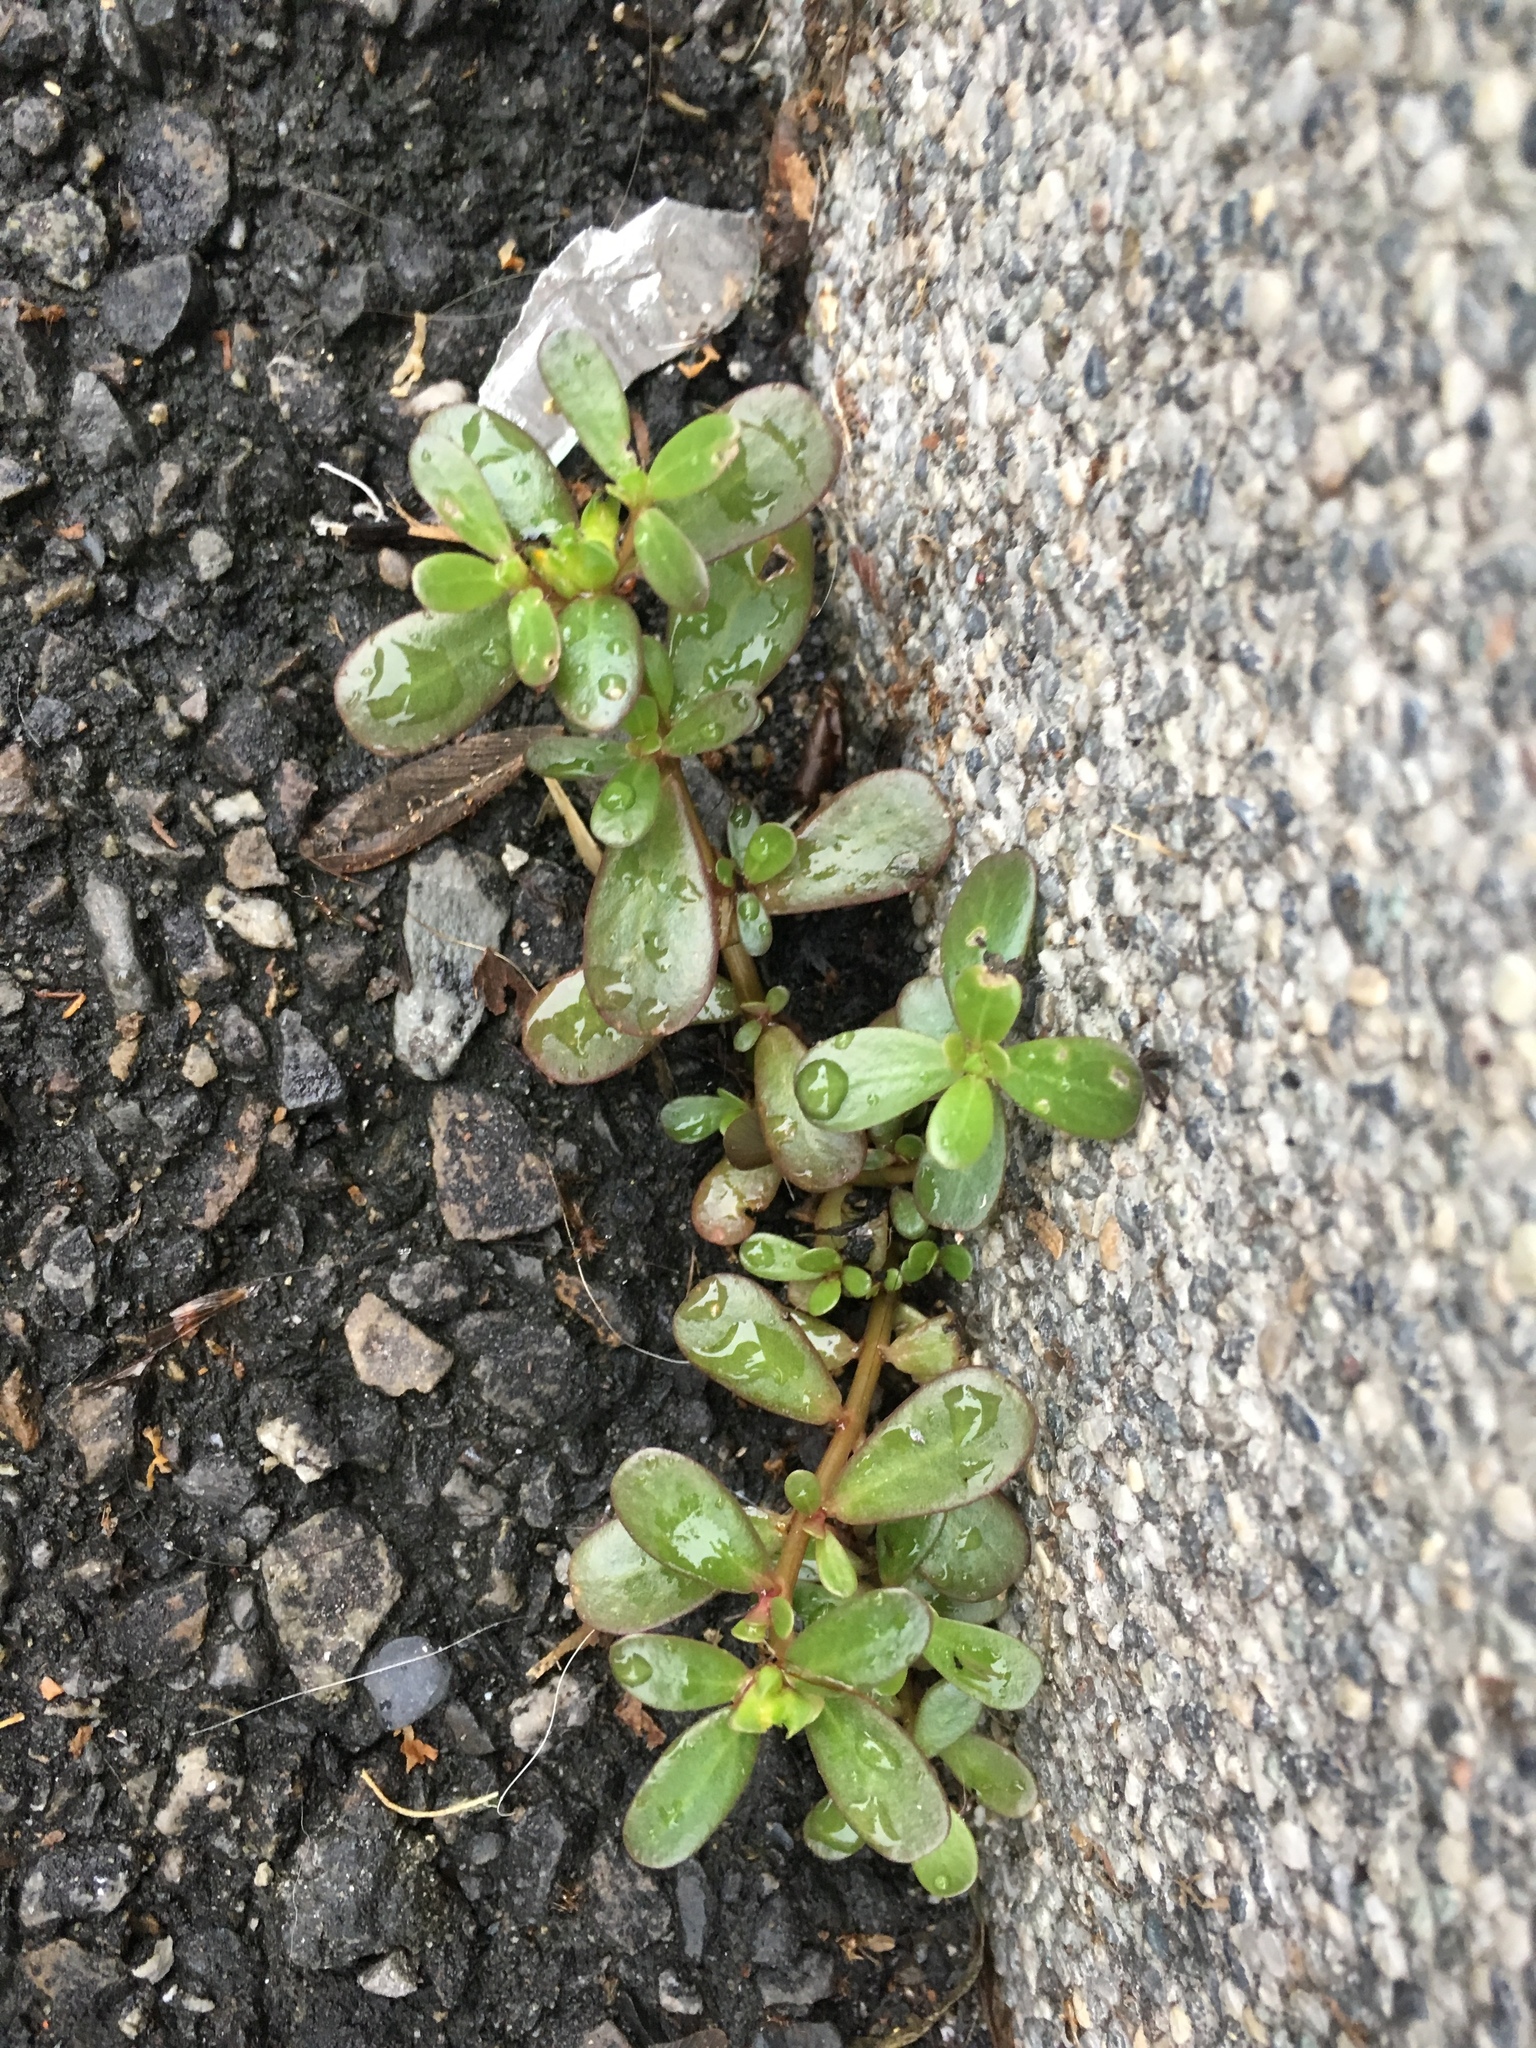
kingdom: Plantae
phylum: Tracheophyta
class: Magnoliopsida
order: Caryophyllales
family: Portulacaceae
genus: Portulaca
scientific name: Portulaca oleracea
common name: Common purslane
